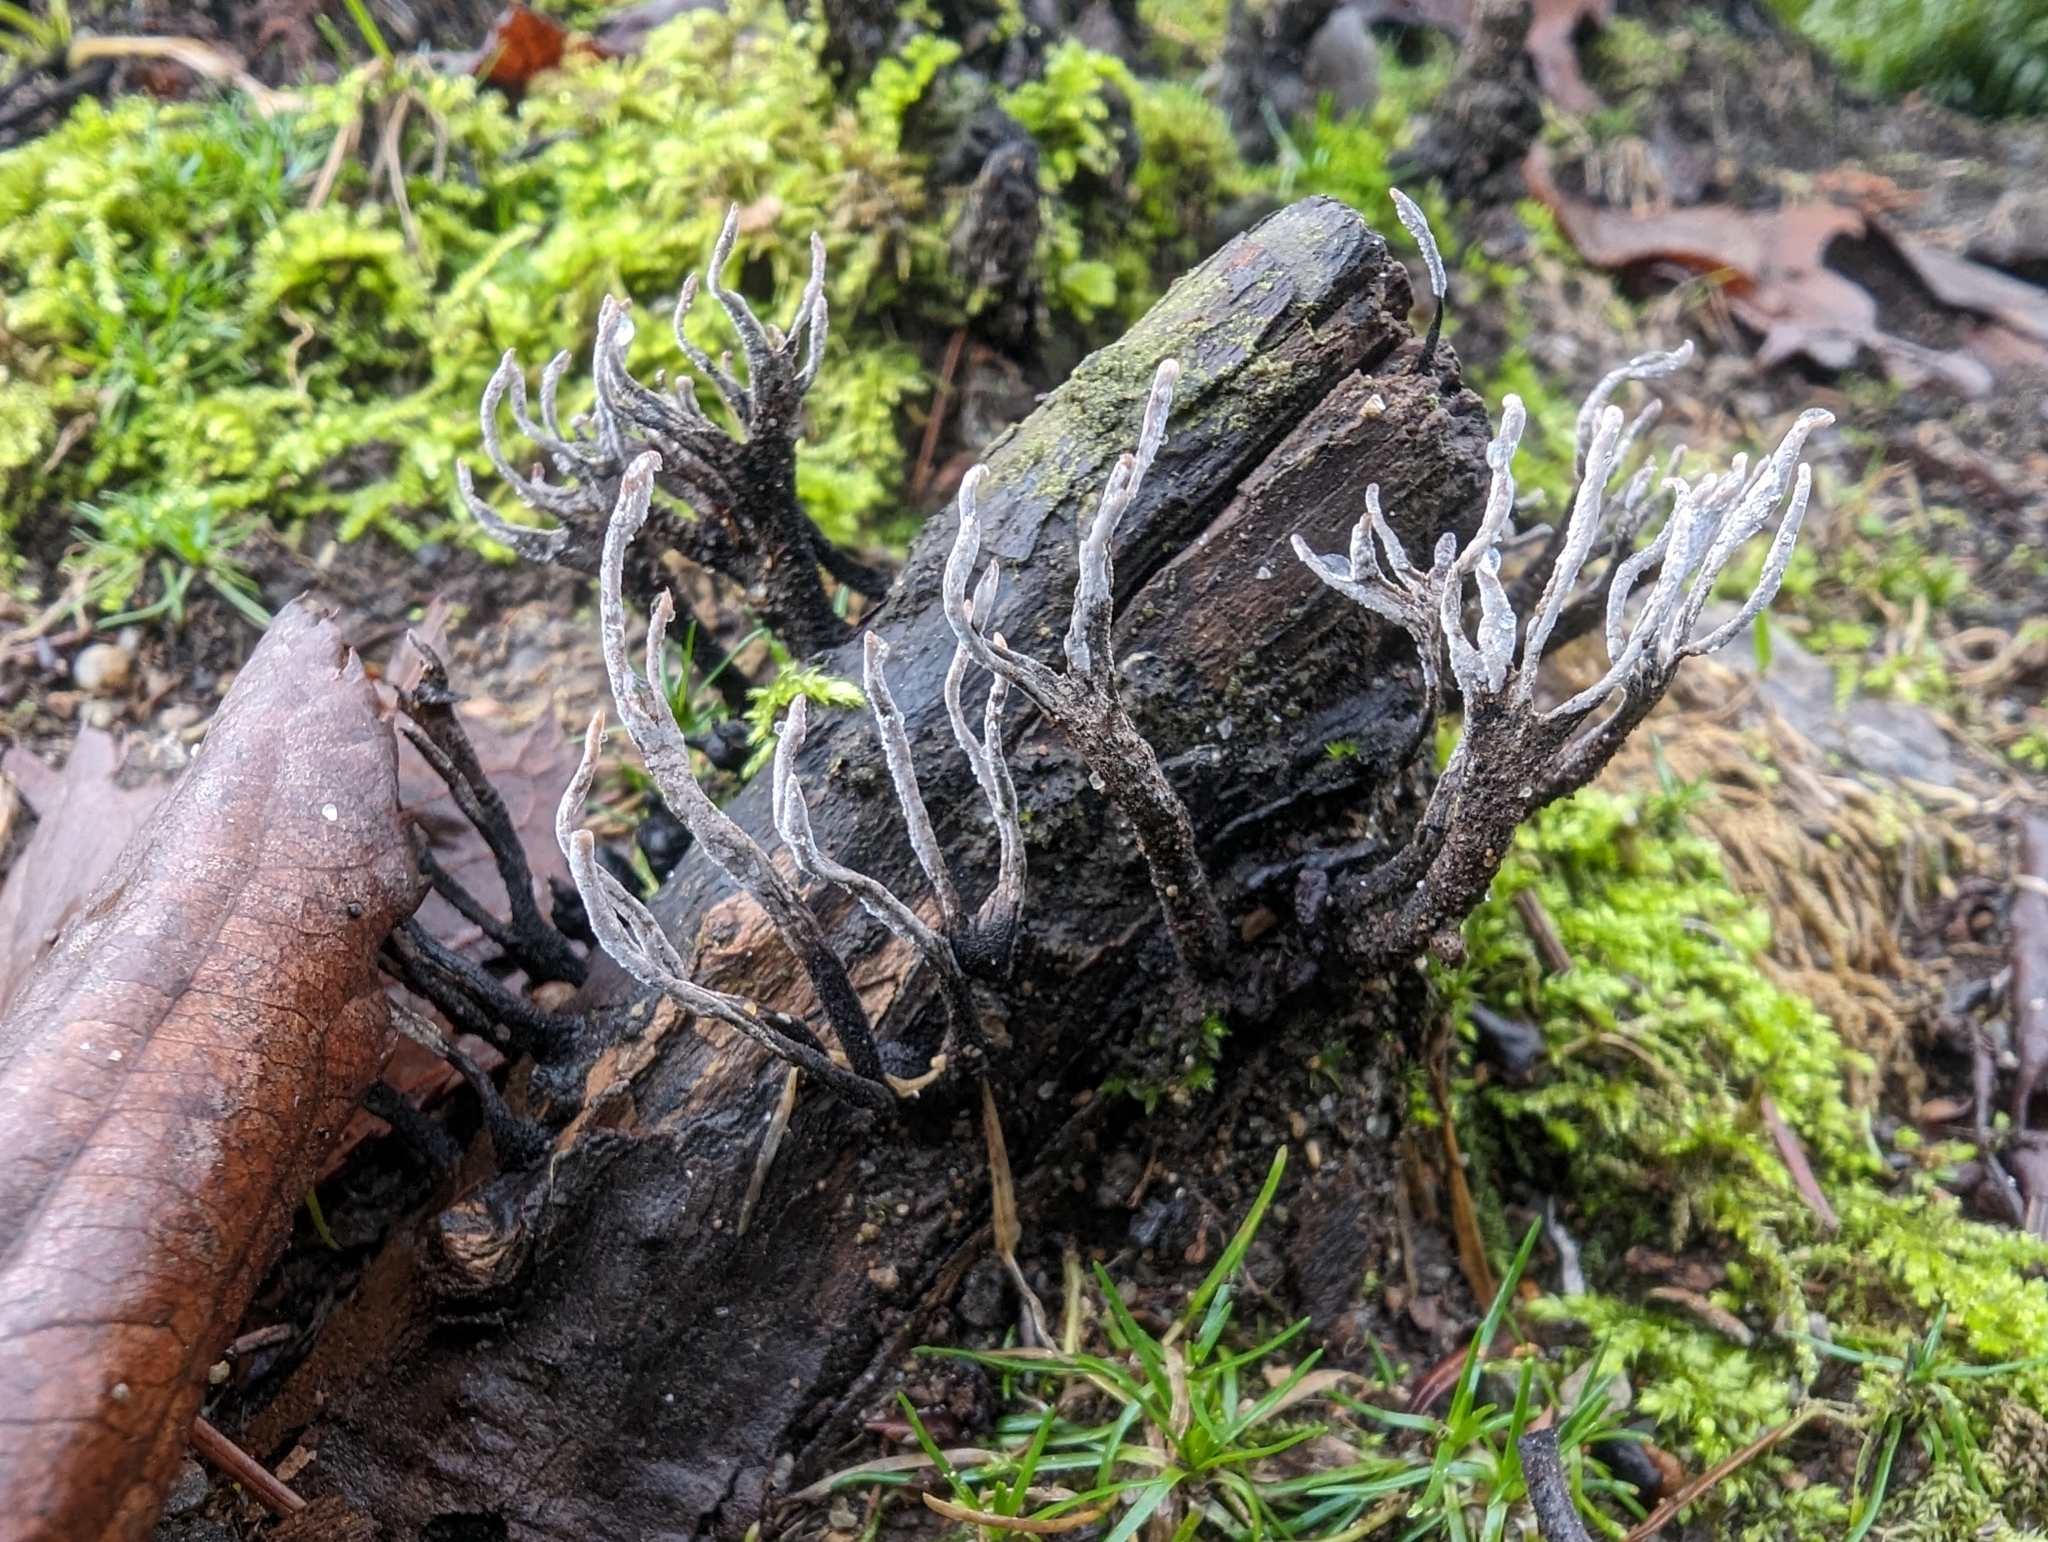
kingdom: Fungi
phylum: Ascomycota
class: Sordariomycetes
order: Xylariales
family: Xylariaceae
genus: Xylaria
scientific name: Xylaria hypoxylon
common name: Candle-snuff fungus
